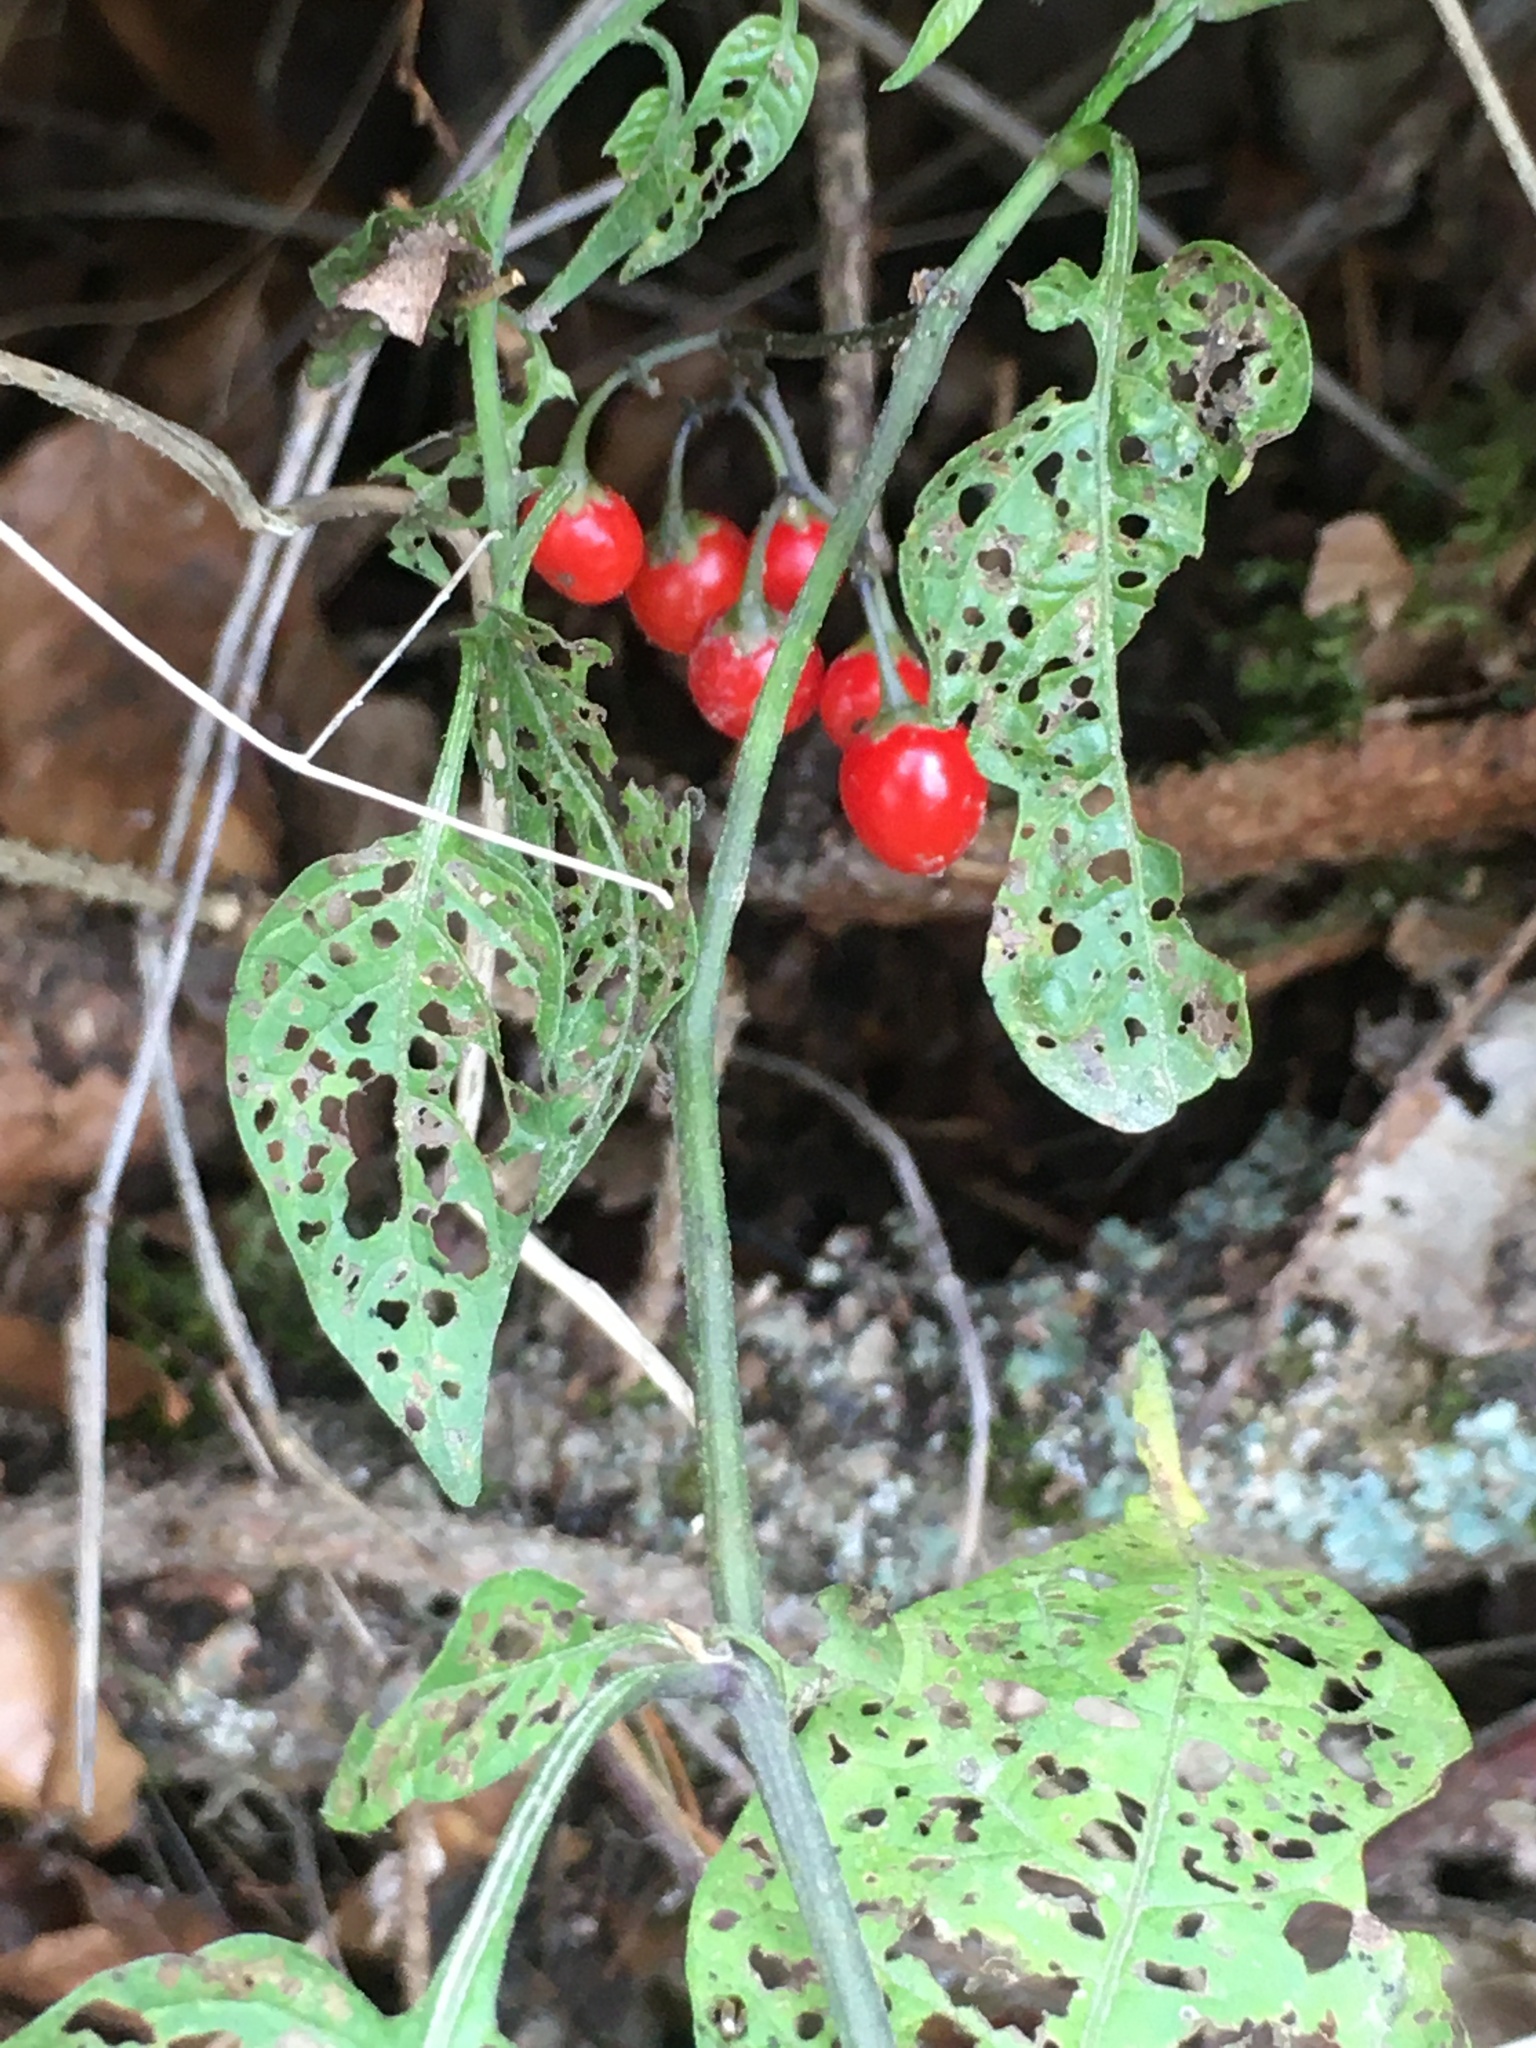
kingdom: Plantae
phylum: Tracheophyta
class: Magnoliopsida
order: Solanales
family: Solanaceae
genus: Solanum
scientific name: Solanum dulcamara
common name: Climbing nightshade
